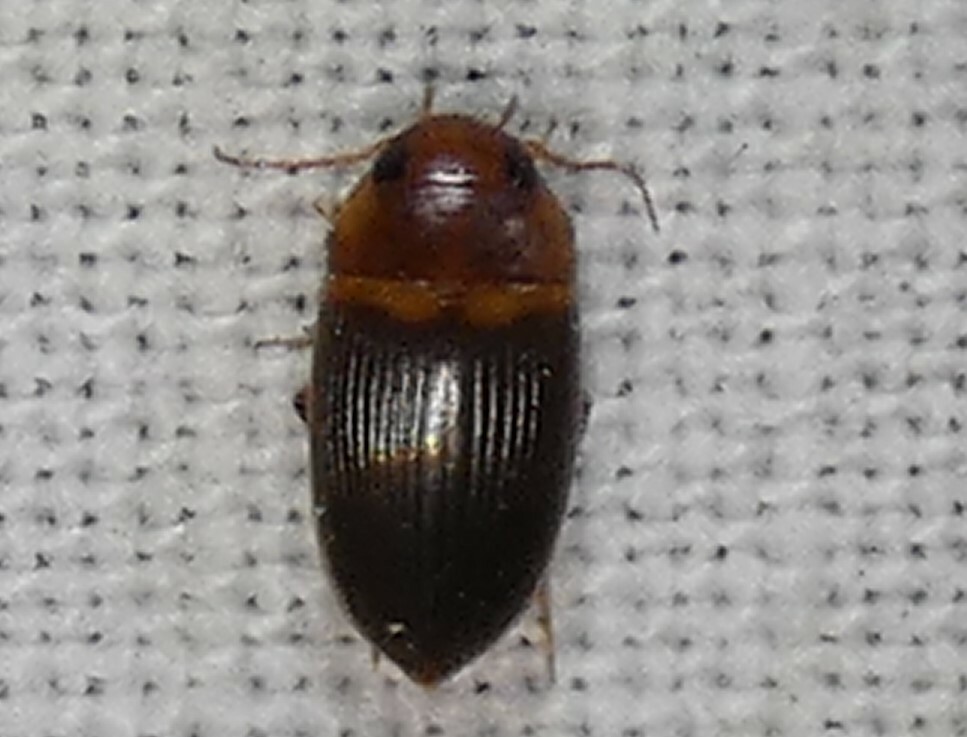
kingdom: Animalia
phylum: Arthropoda
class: Insecta
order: Coleoptera
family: Dytiscidae
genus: Copelatus
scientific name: Copelatus caelatipennis
